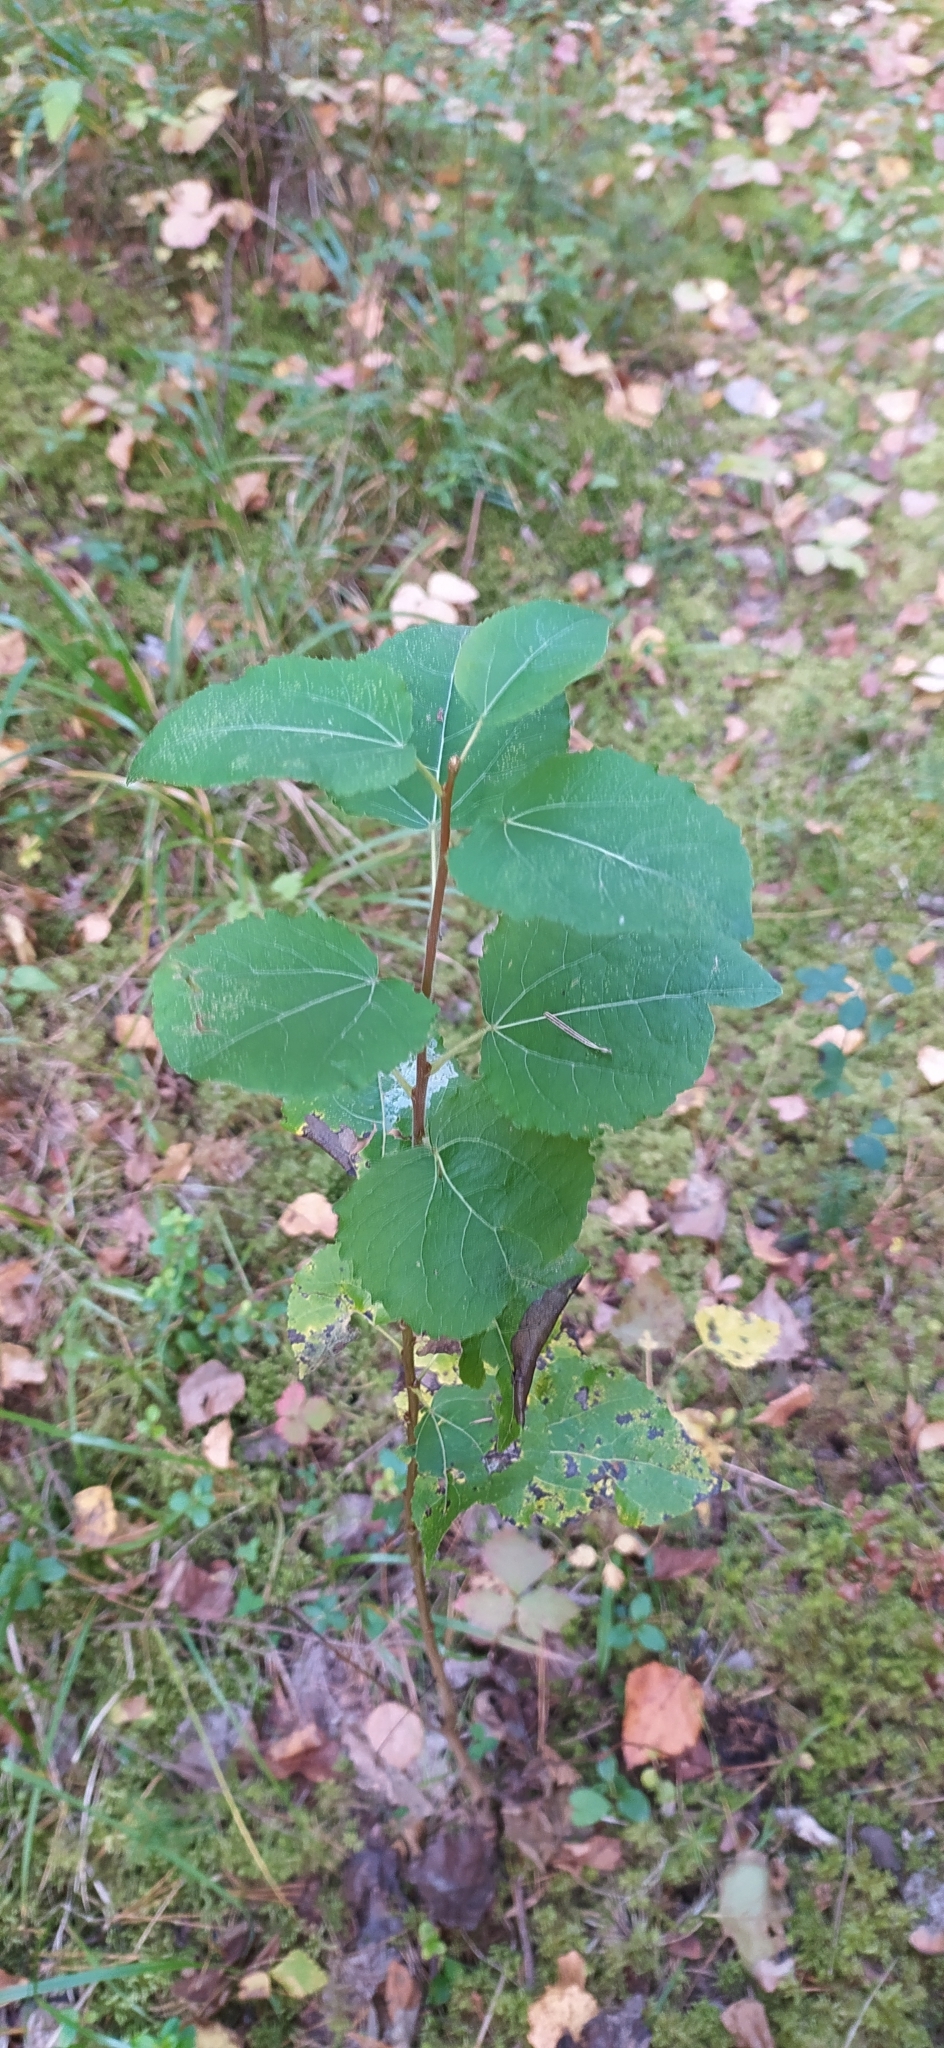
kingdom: Plantae
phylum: Tracheophyta
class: Magnoliopsida
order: Malpighiales
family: Salicaceae
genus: Populus
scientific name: Populus tremula
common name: European aspen
